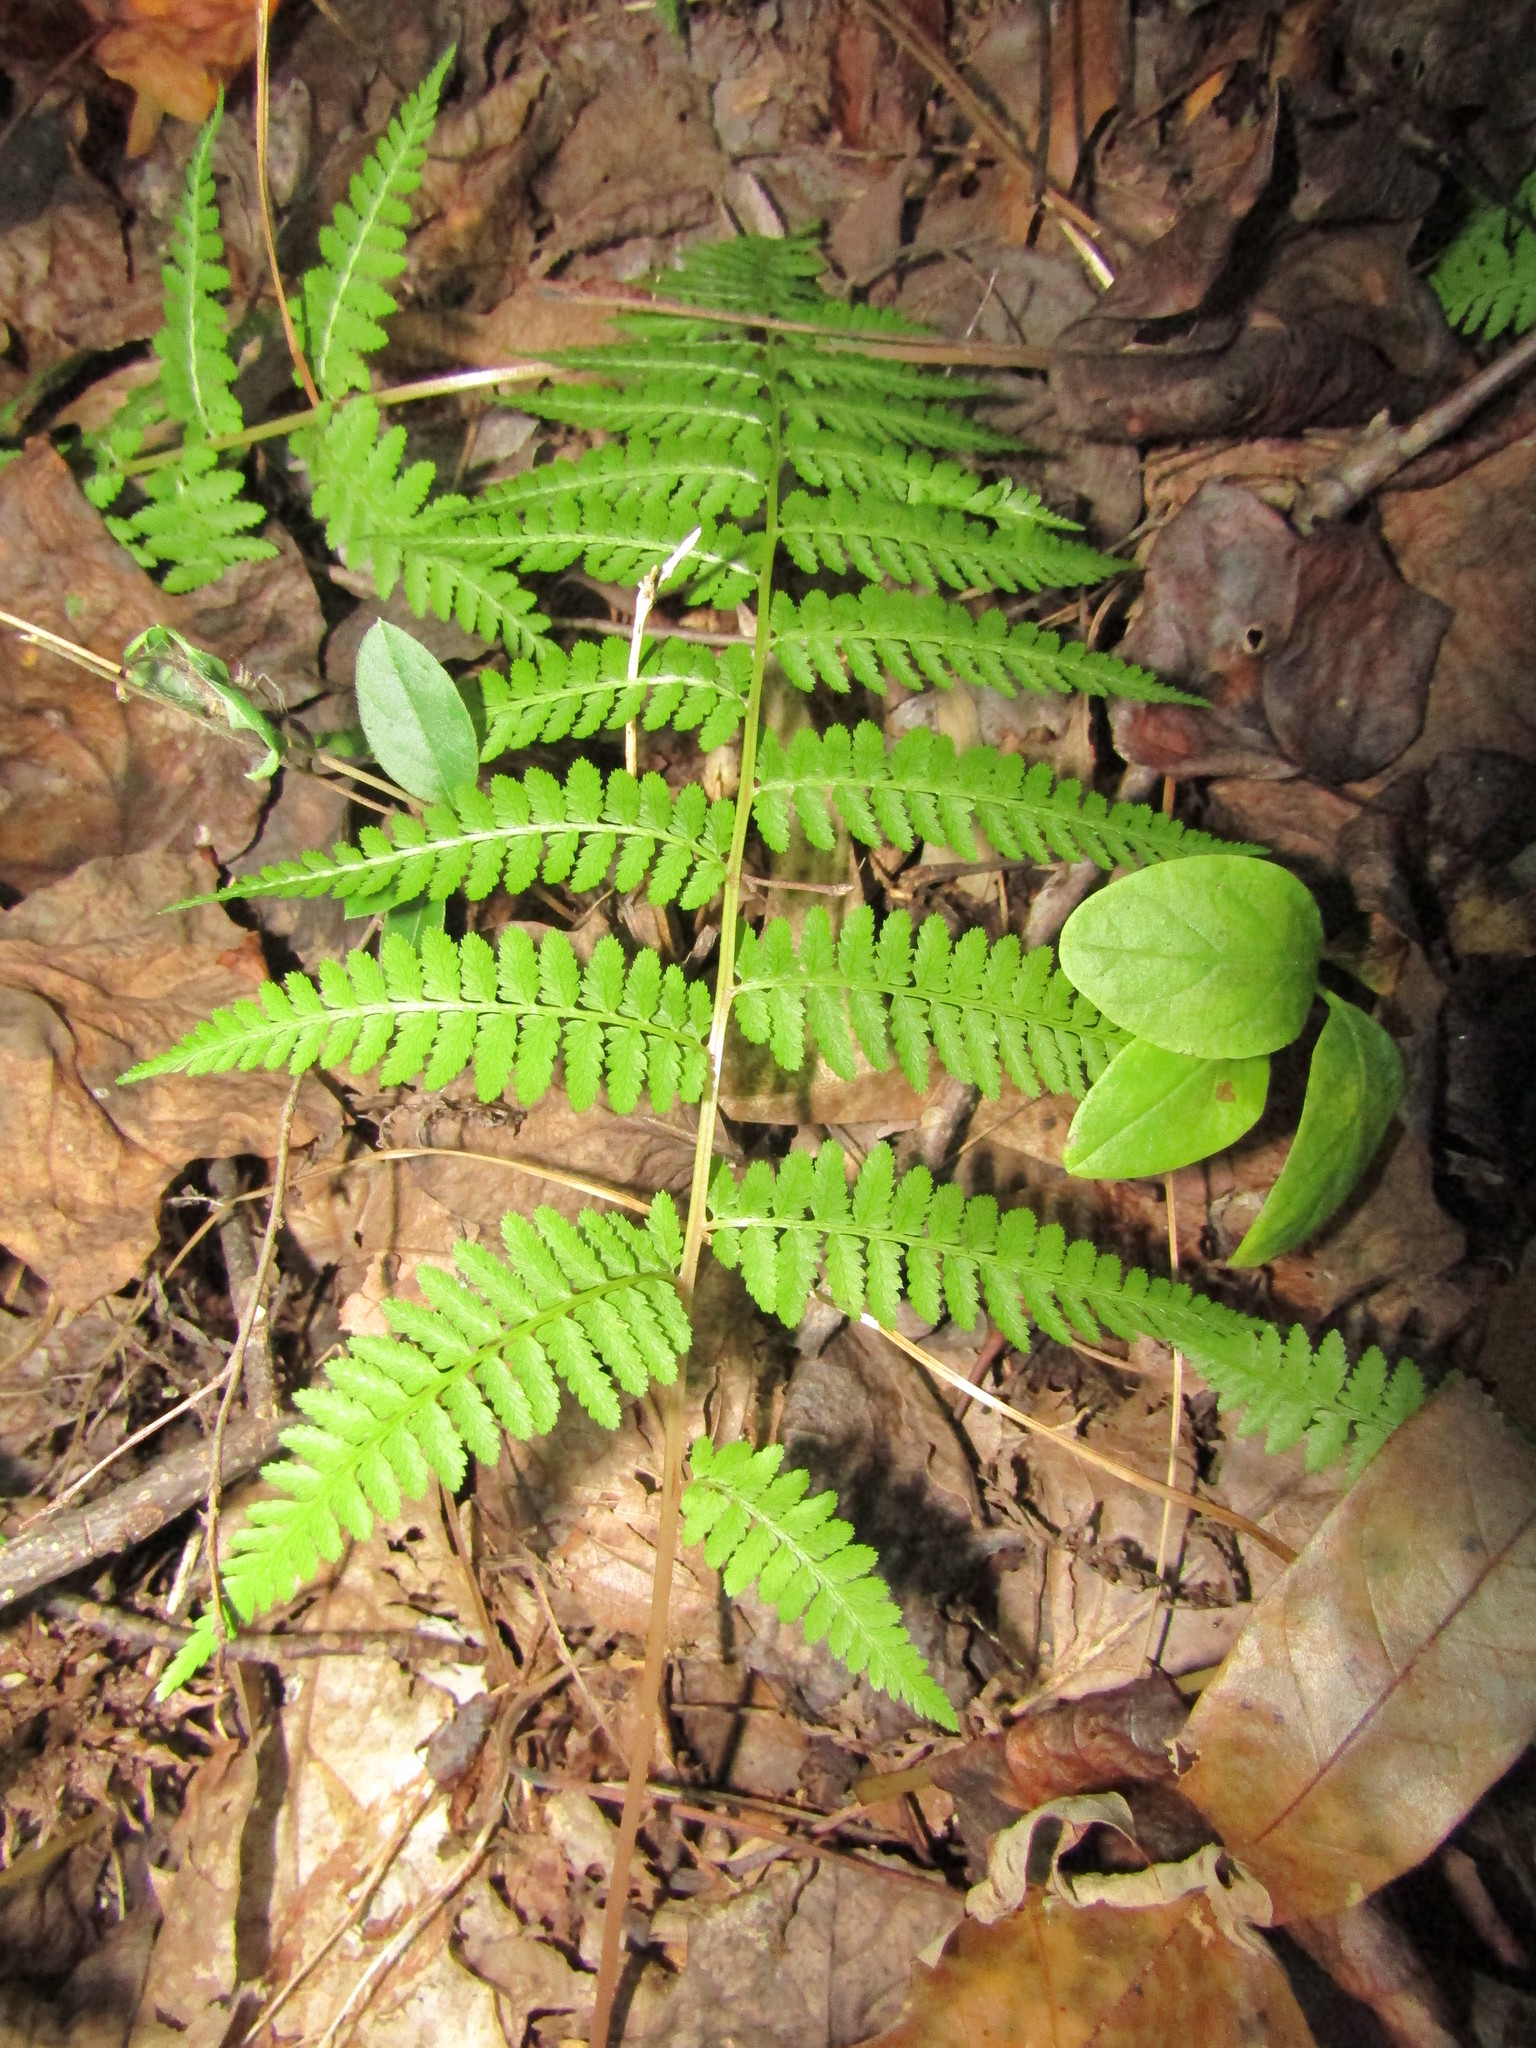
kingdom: Plantae
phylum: Tracheophyta
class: Polypodiopsida
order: Polypodiales
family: Dennstaedtiaceae
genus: Sitobolium
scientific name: Sitobolium punctilobum
